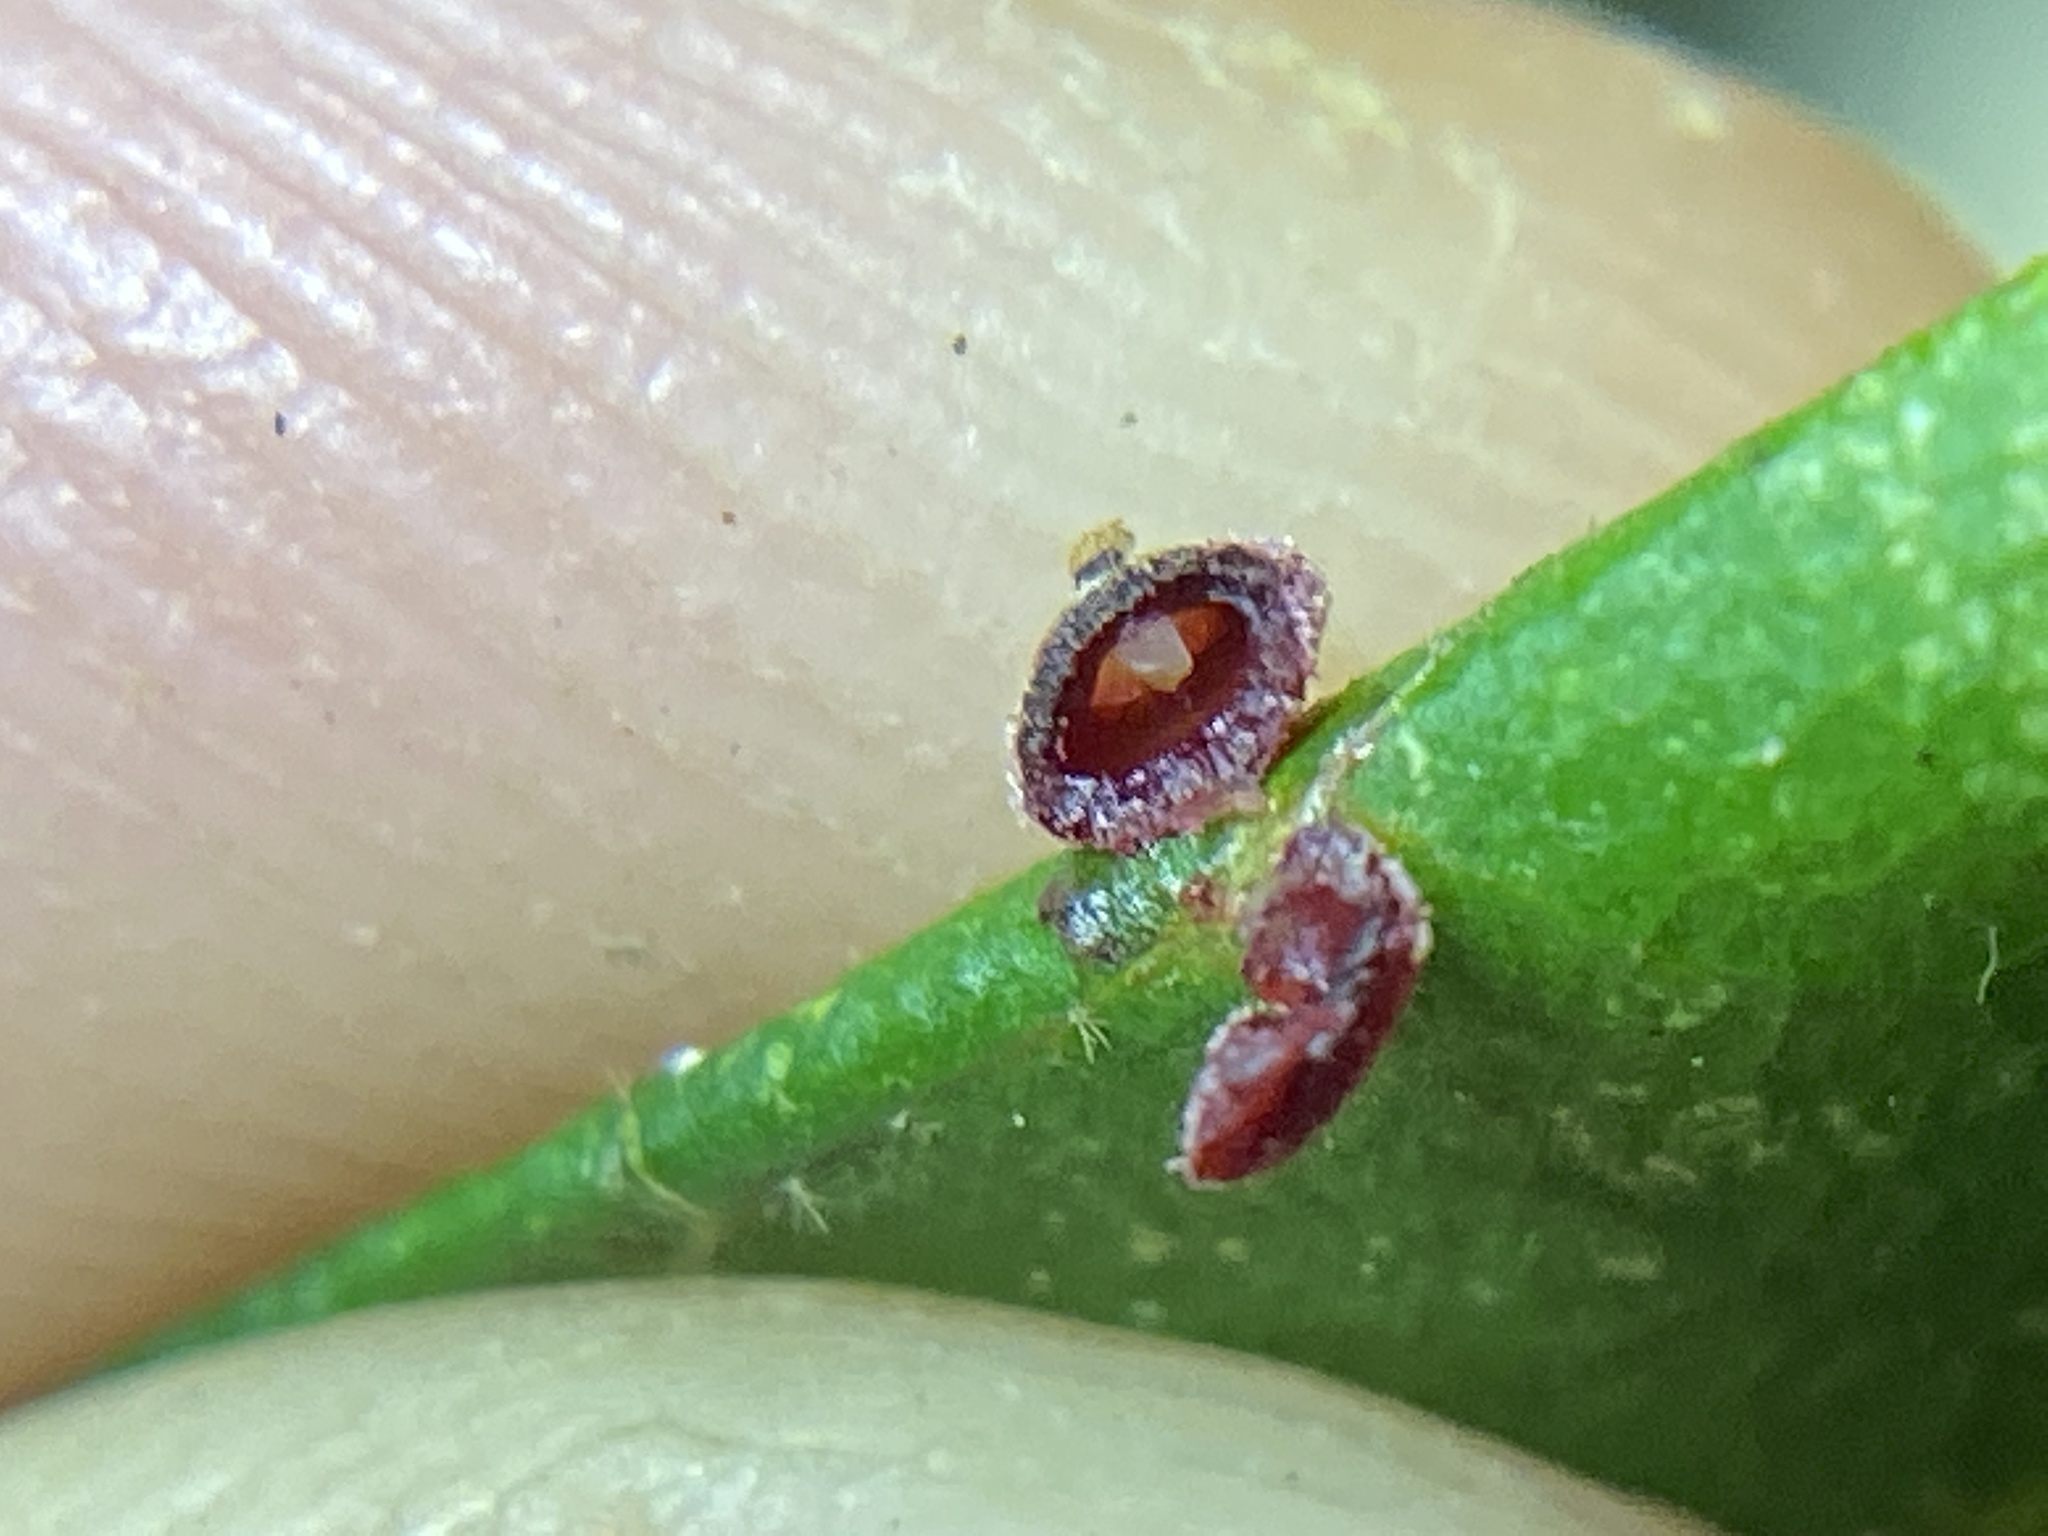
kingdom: Animalia
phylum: Arthropoda
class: Insecta
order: Diptera
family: Cecidomyiidae
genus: Caryomyia
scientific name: Caryomyia viscidolium
